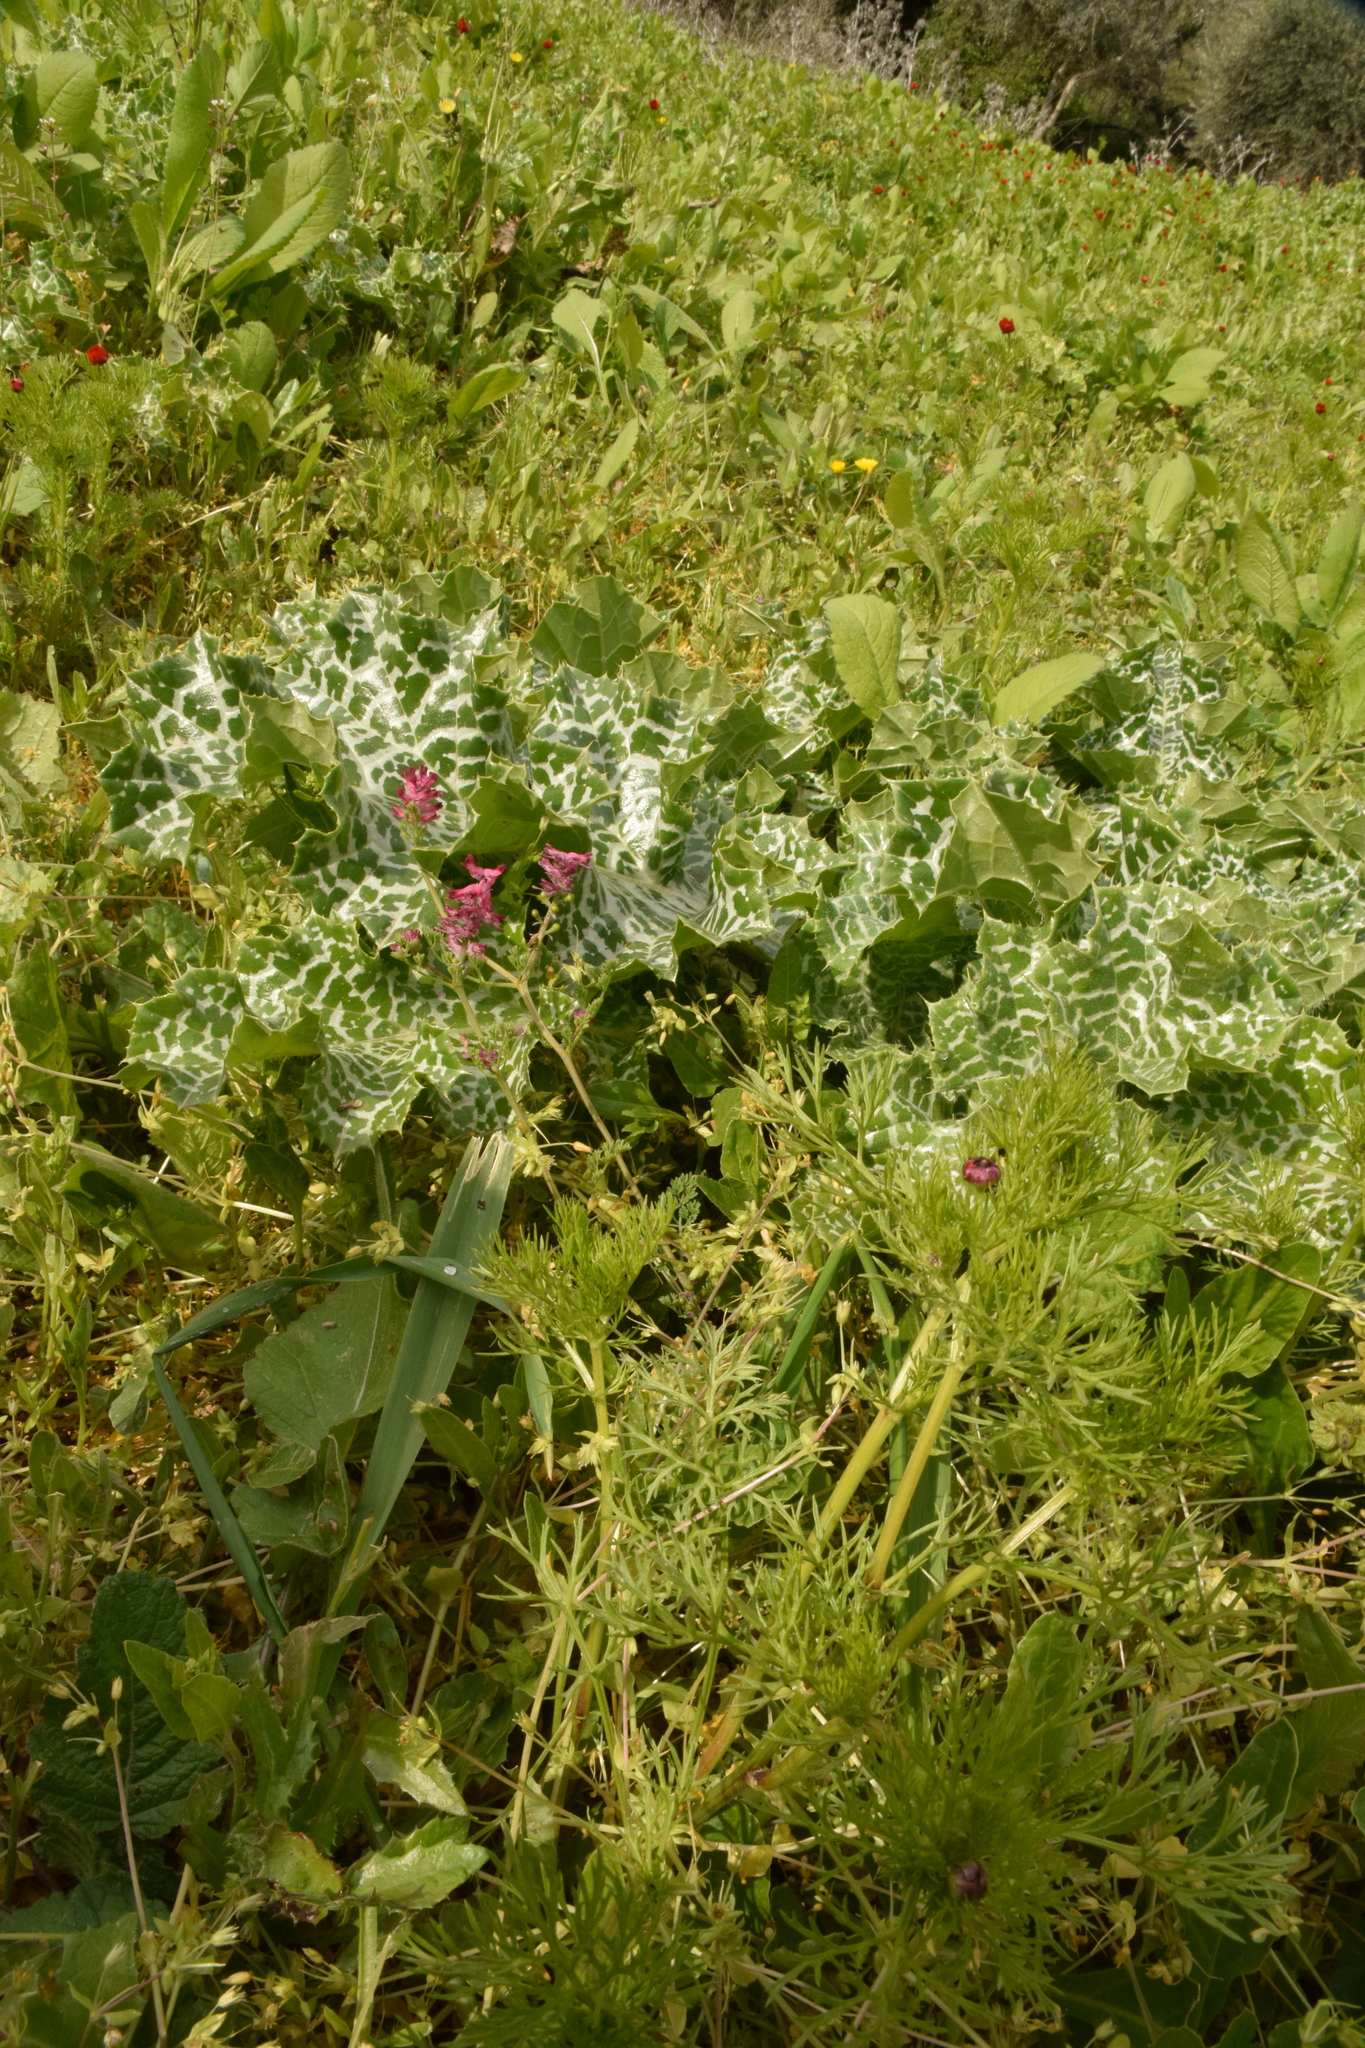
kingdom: Plantae
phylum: Tracheophyta
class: Magnoliopsida
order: Ranunculales
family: Papaveraceae
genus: Fumaria
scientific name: Fumaria densiflora
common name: Dense-flowered fumitory
